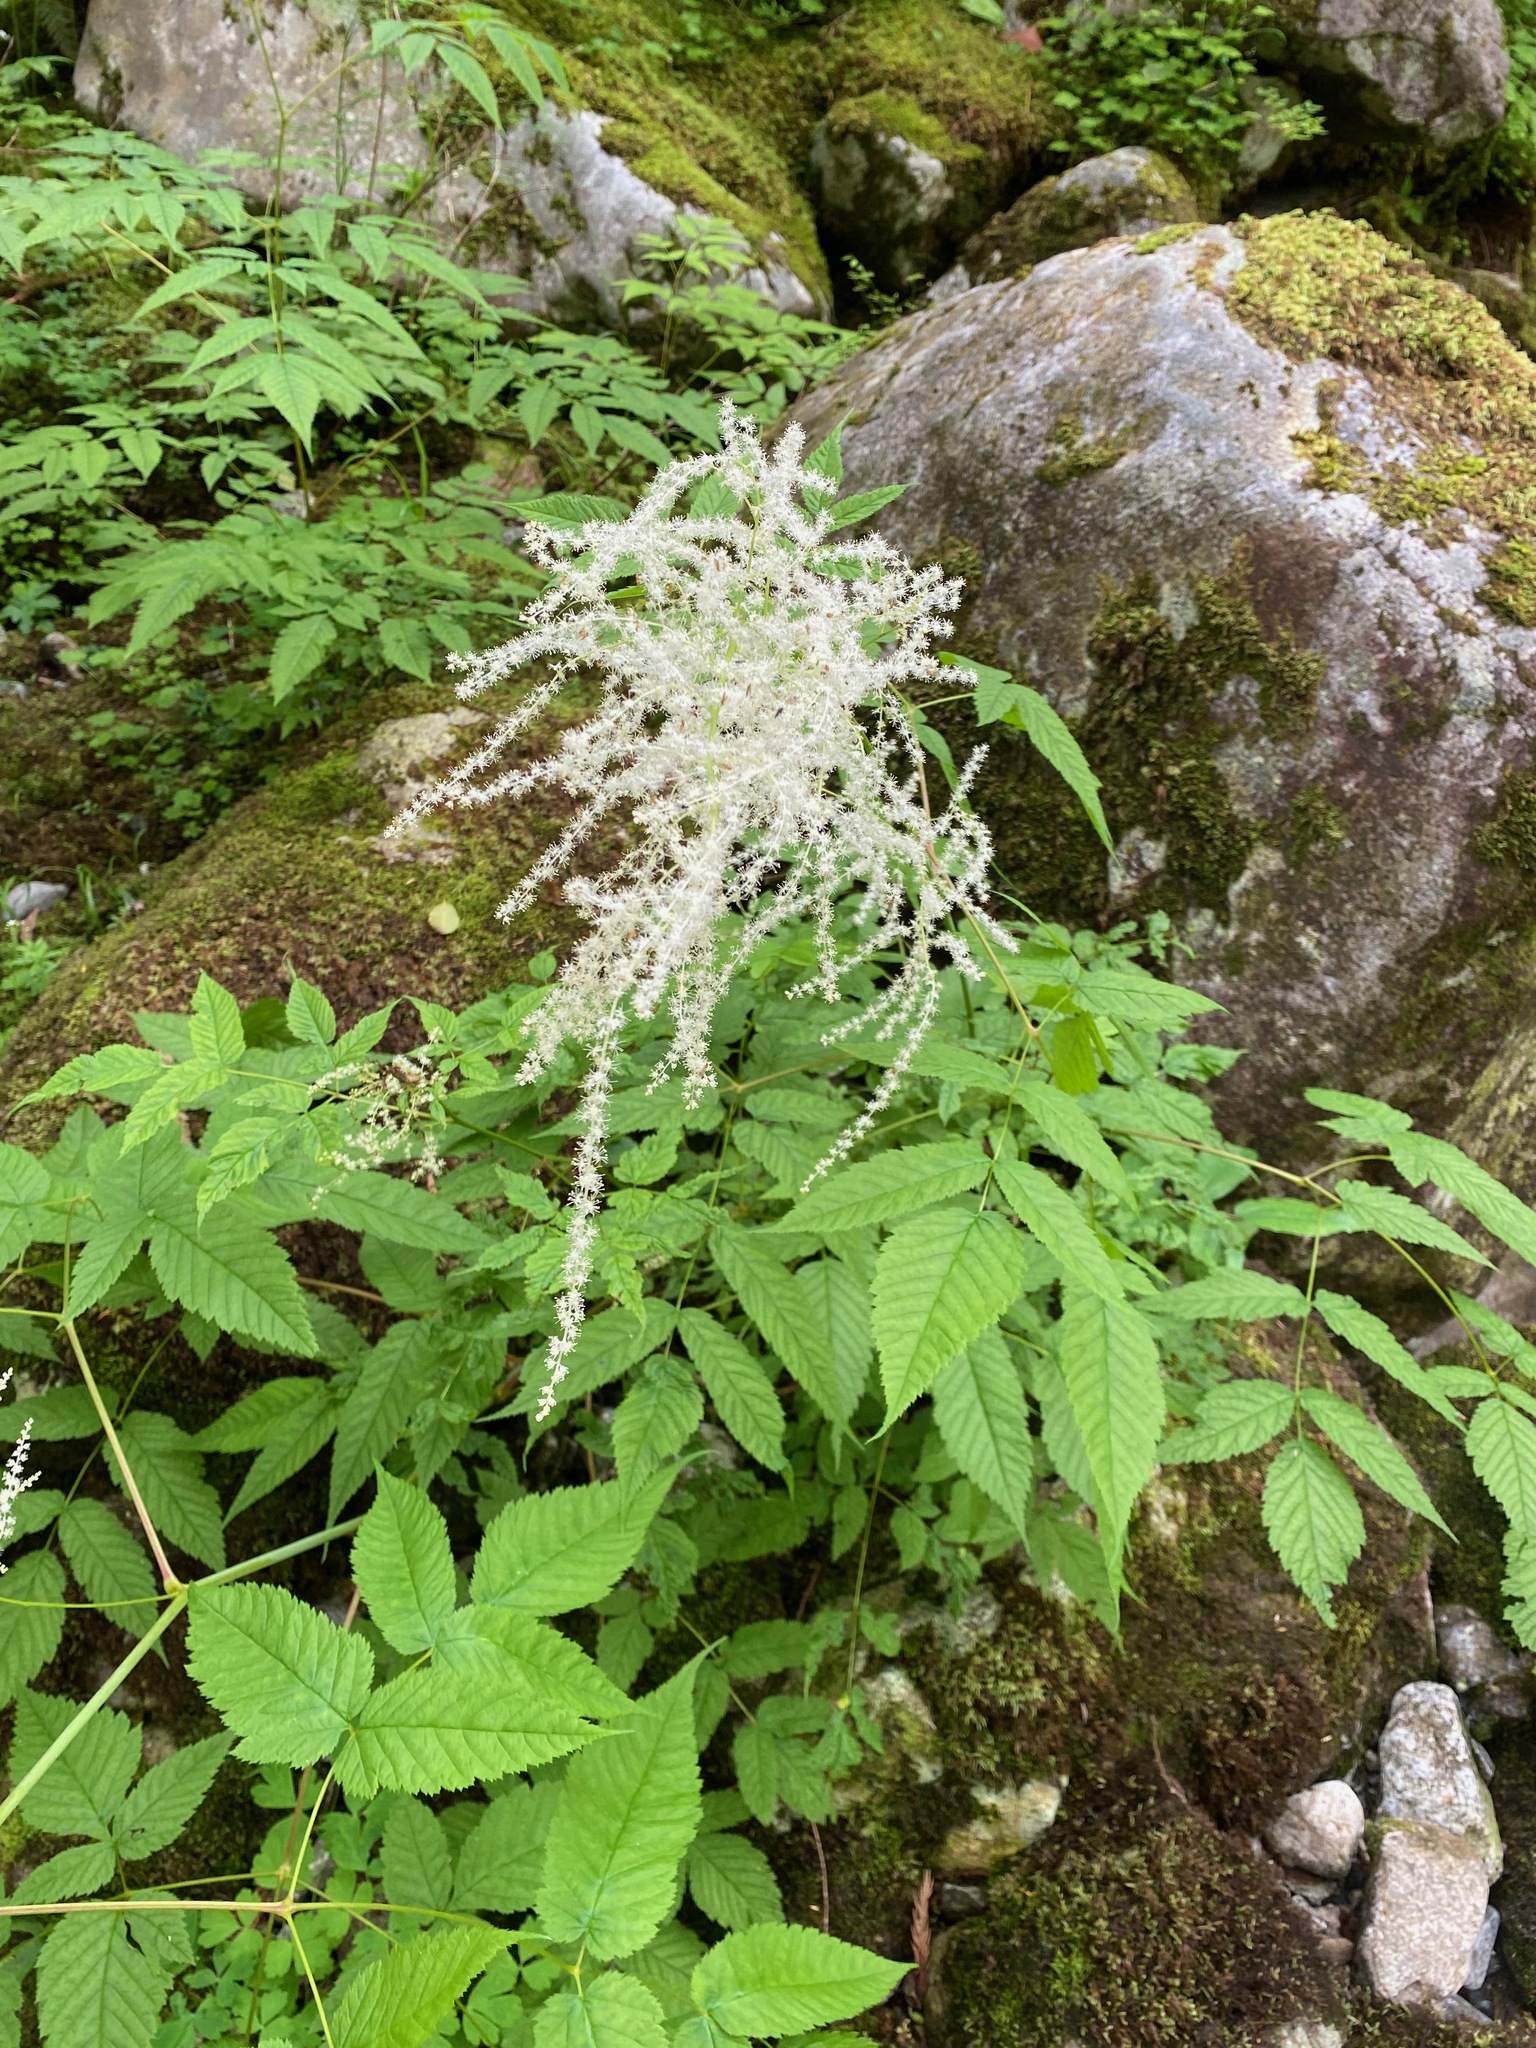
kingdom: Plantae
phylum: Tracheophyta
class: Magnoliopsida
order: Rosales
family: Rosaceae
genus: Aruncus
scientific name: Aruncus dioicus
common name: Buck's-beard
